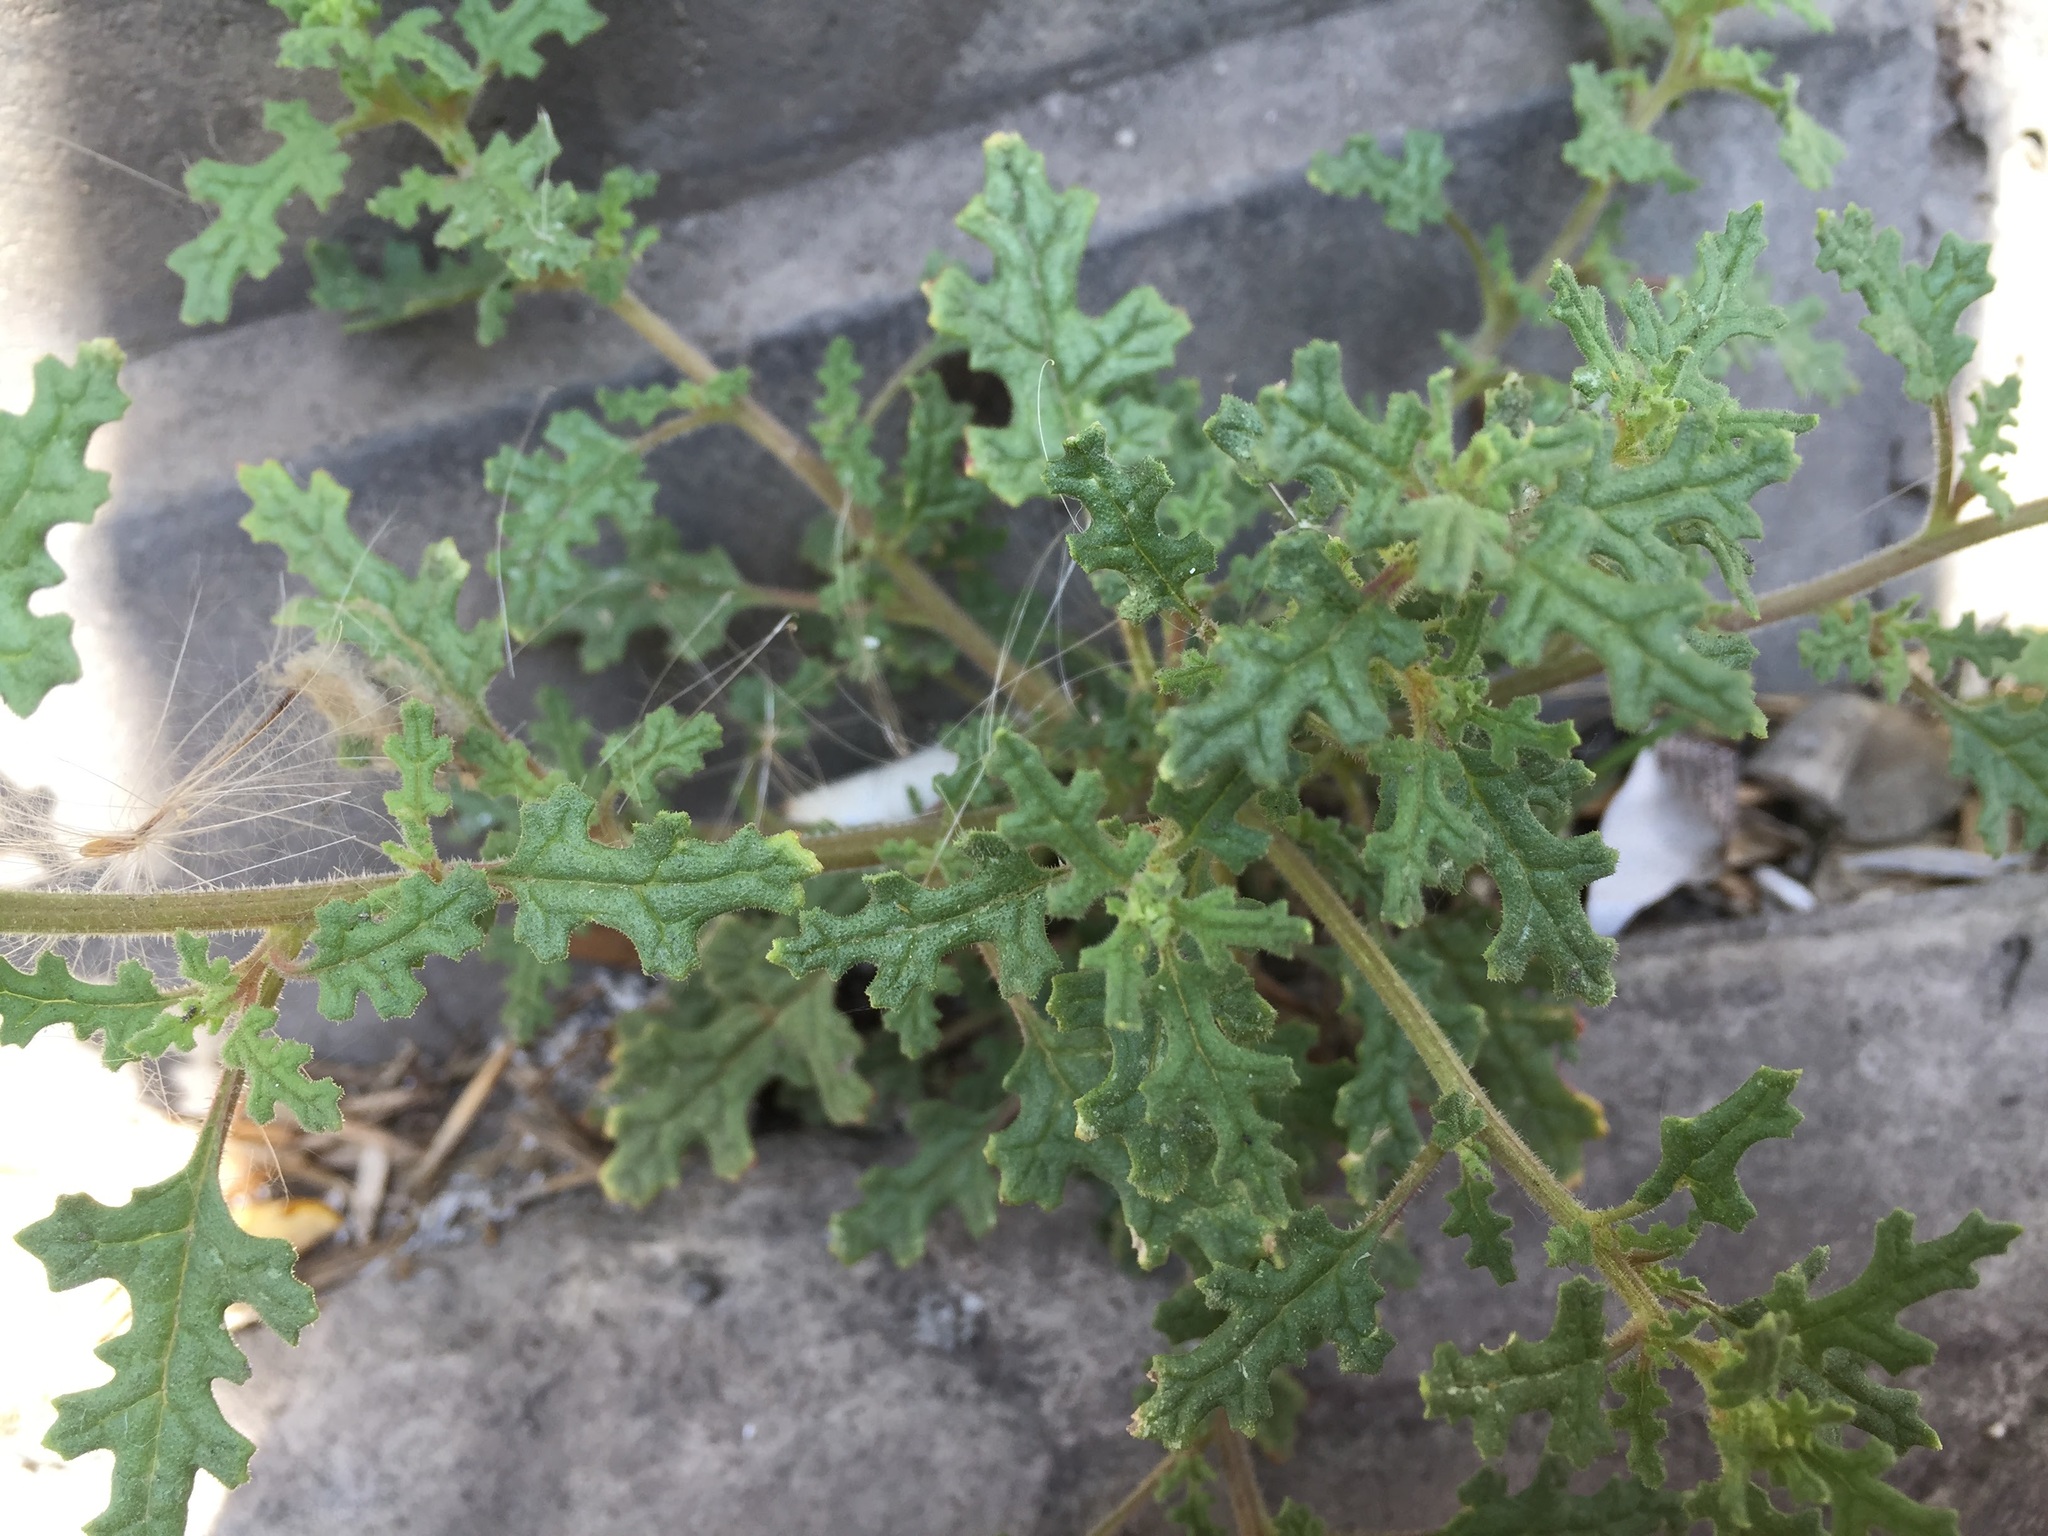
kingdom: Plantae
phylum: Tracheophyta
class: Magnoliopsida
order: Caryophyllales
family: Amaranthaceae
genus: Dysphania
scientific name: Dysphania botrys
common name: Feather-geranium
